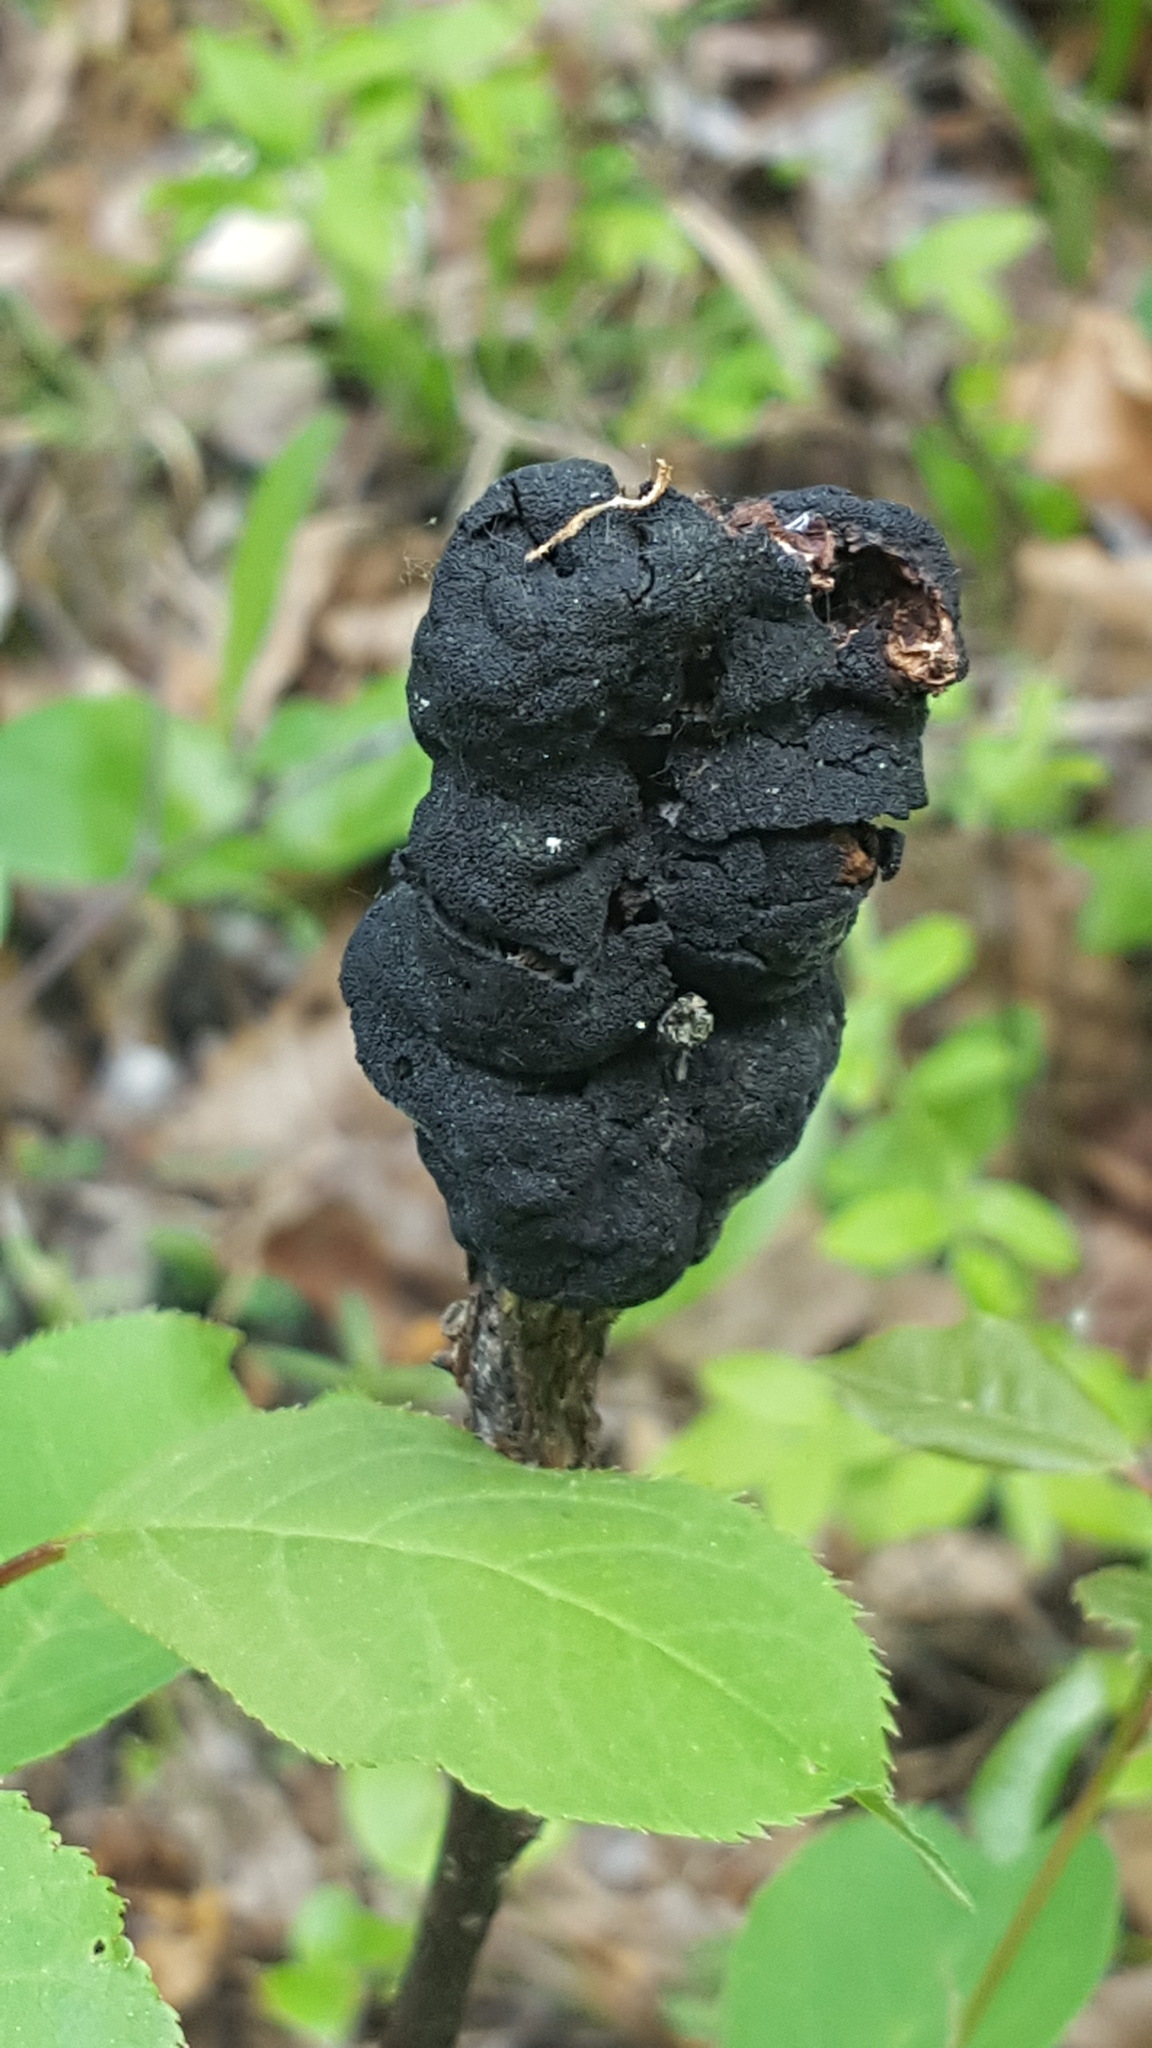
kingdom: Fungi
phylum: Ascomycota
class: Dothideomycetes
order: Venturiales
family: Venturiaceae
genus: Apiosporina
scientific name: Apiosporina morbosa
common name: Black knot
